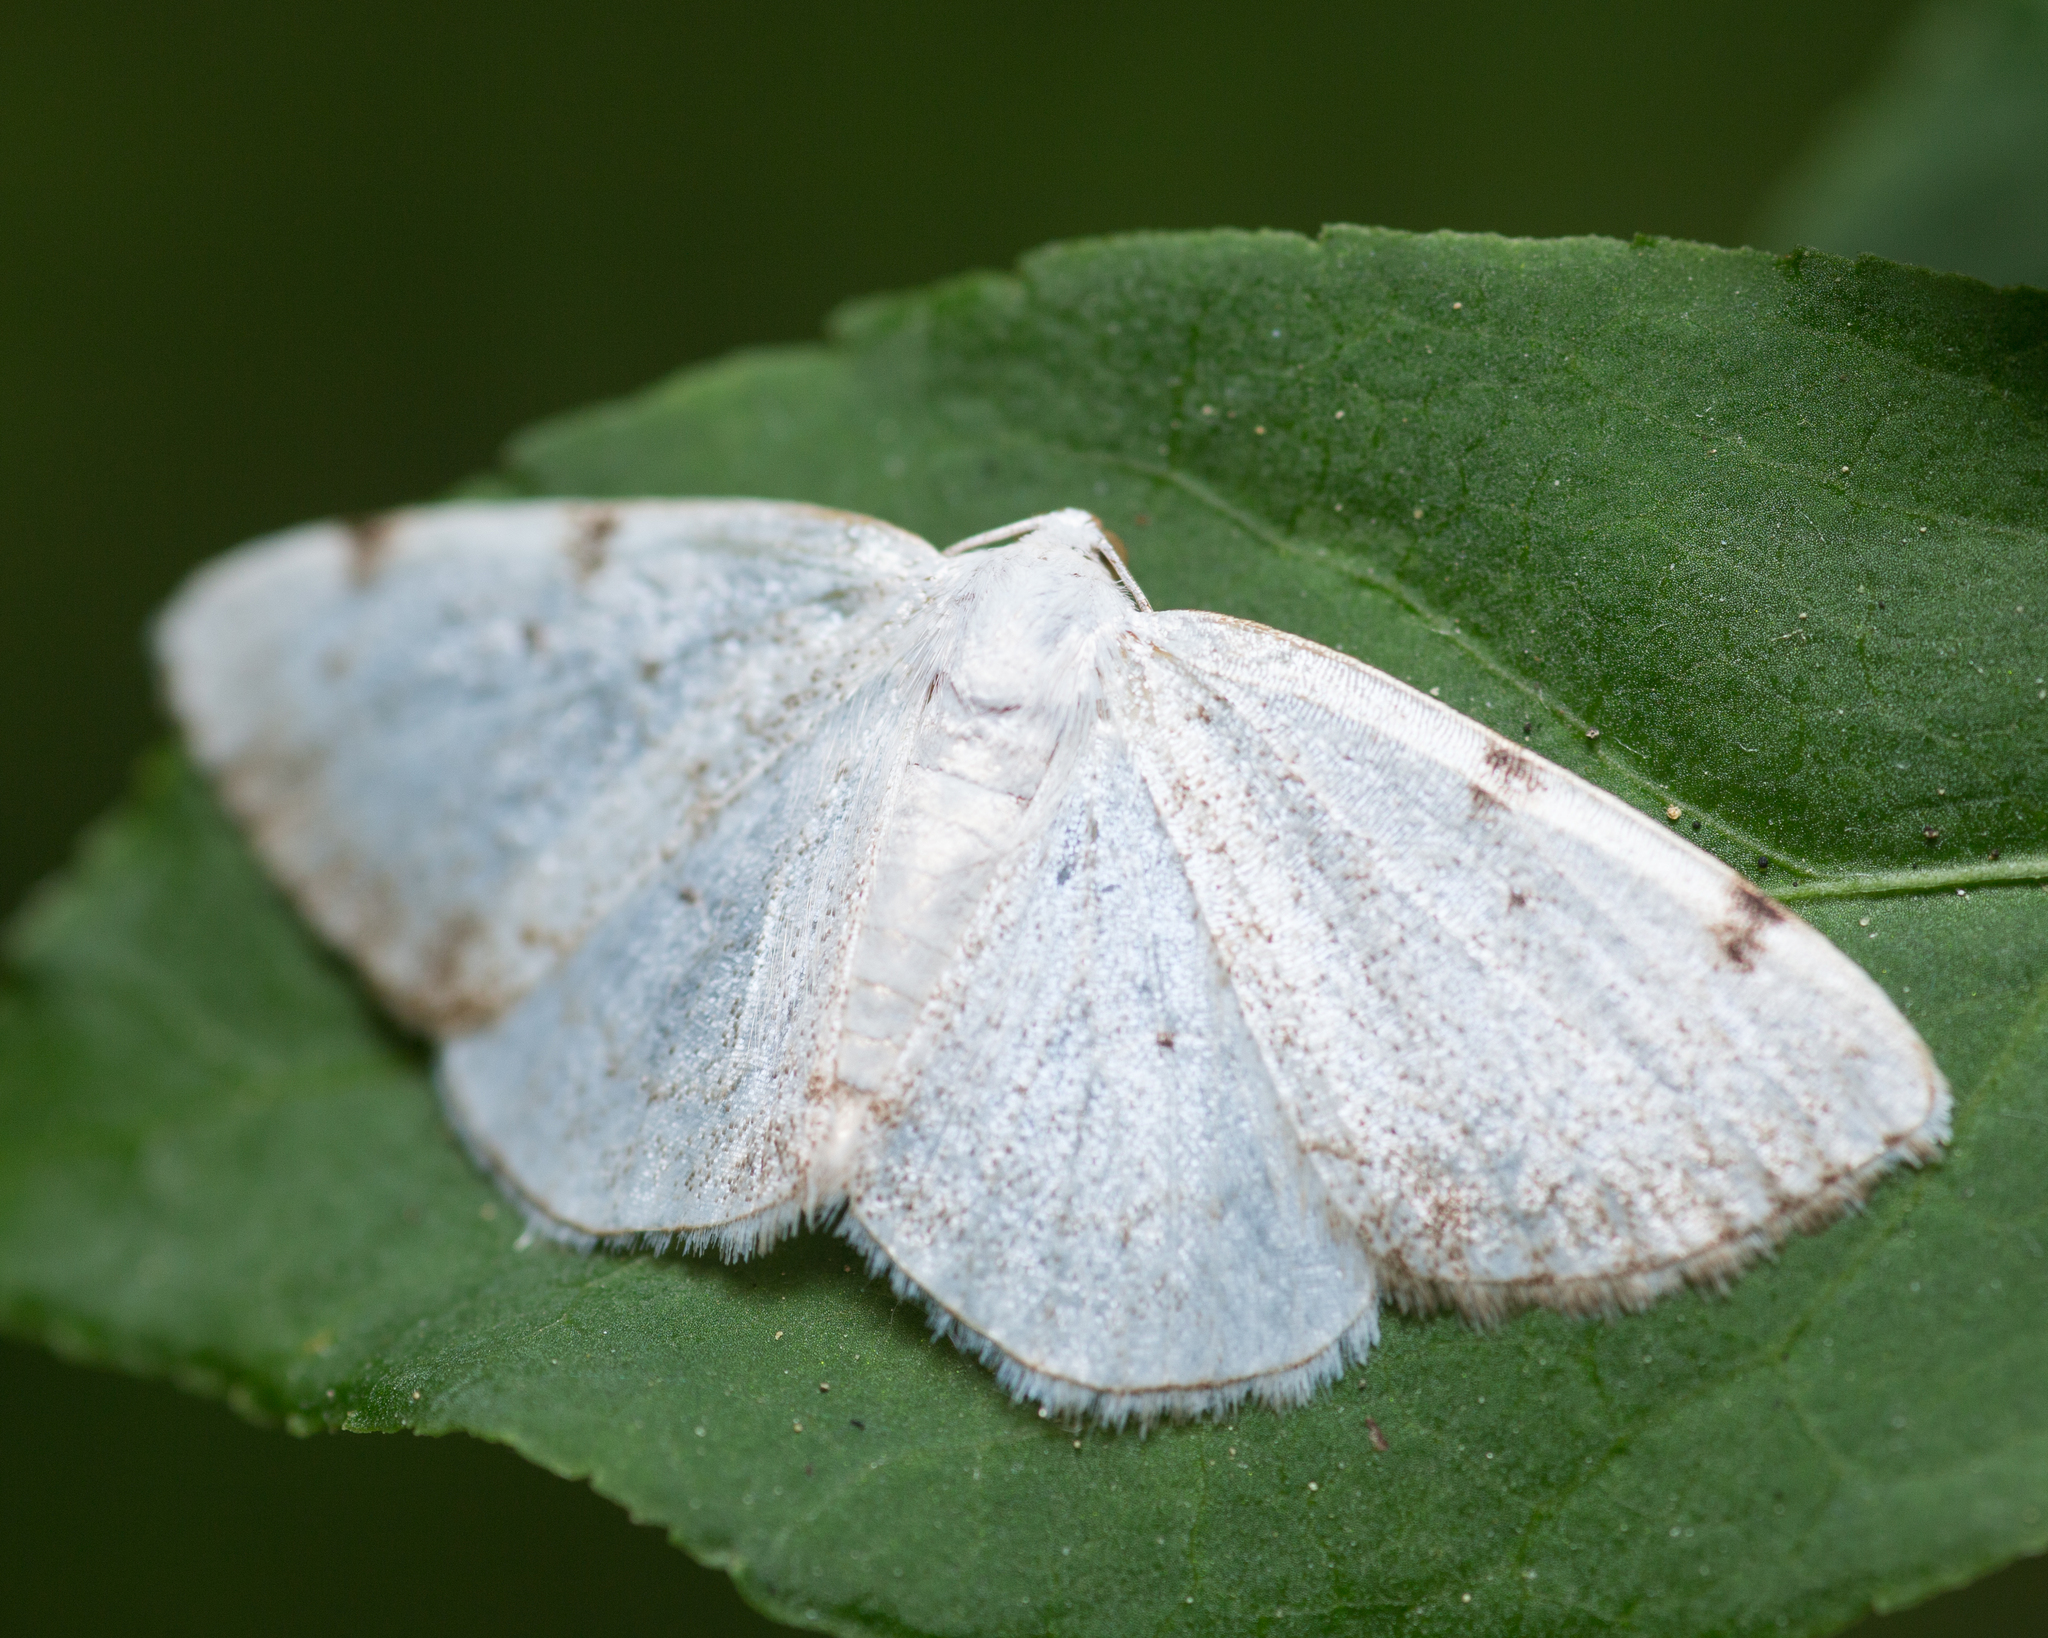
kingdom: Animalia
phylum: Arthropoda
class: Insecta
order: Lepidoptera
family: Geometridae
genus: Lomographa
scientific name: Lomographa bimaculata
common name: White-pinion spotted
